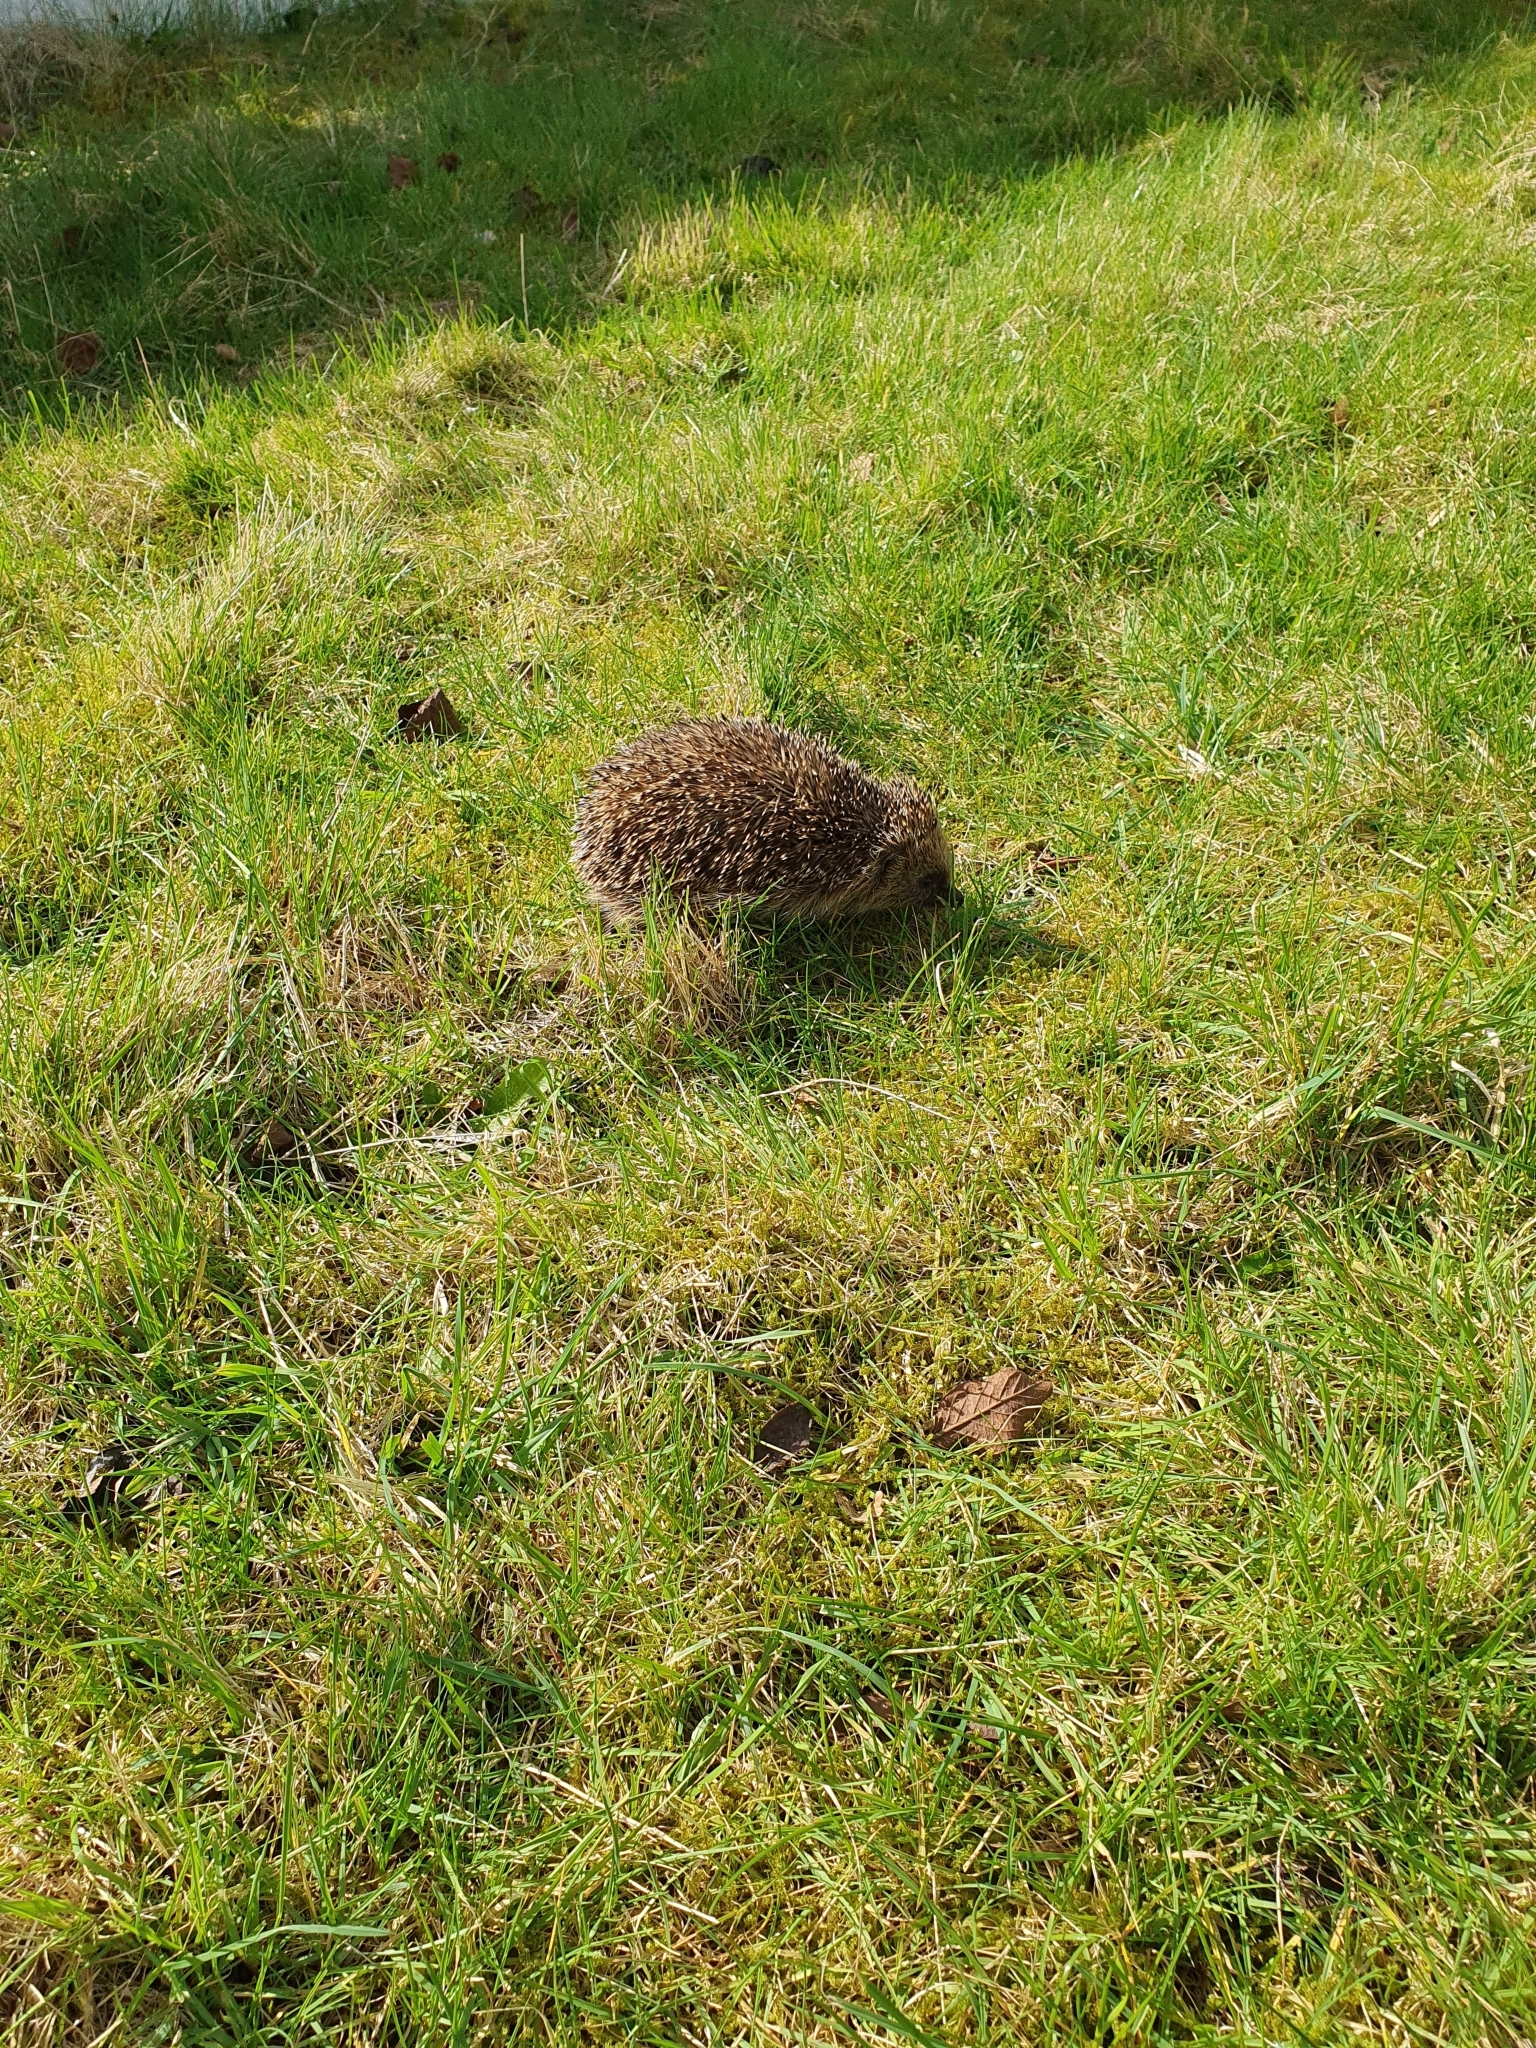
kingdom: Animalia
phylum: Chordata
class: Mammalia
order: Erinaceomorpha
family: Erinaceidae
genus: Erinaceus
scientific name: Erinaceus europaeus
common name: West european hedgehog
